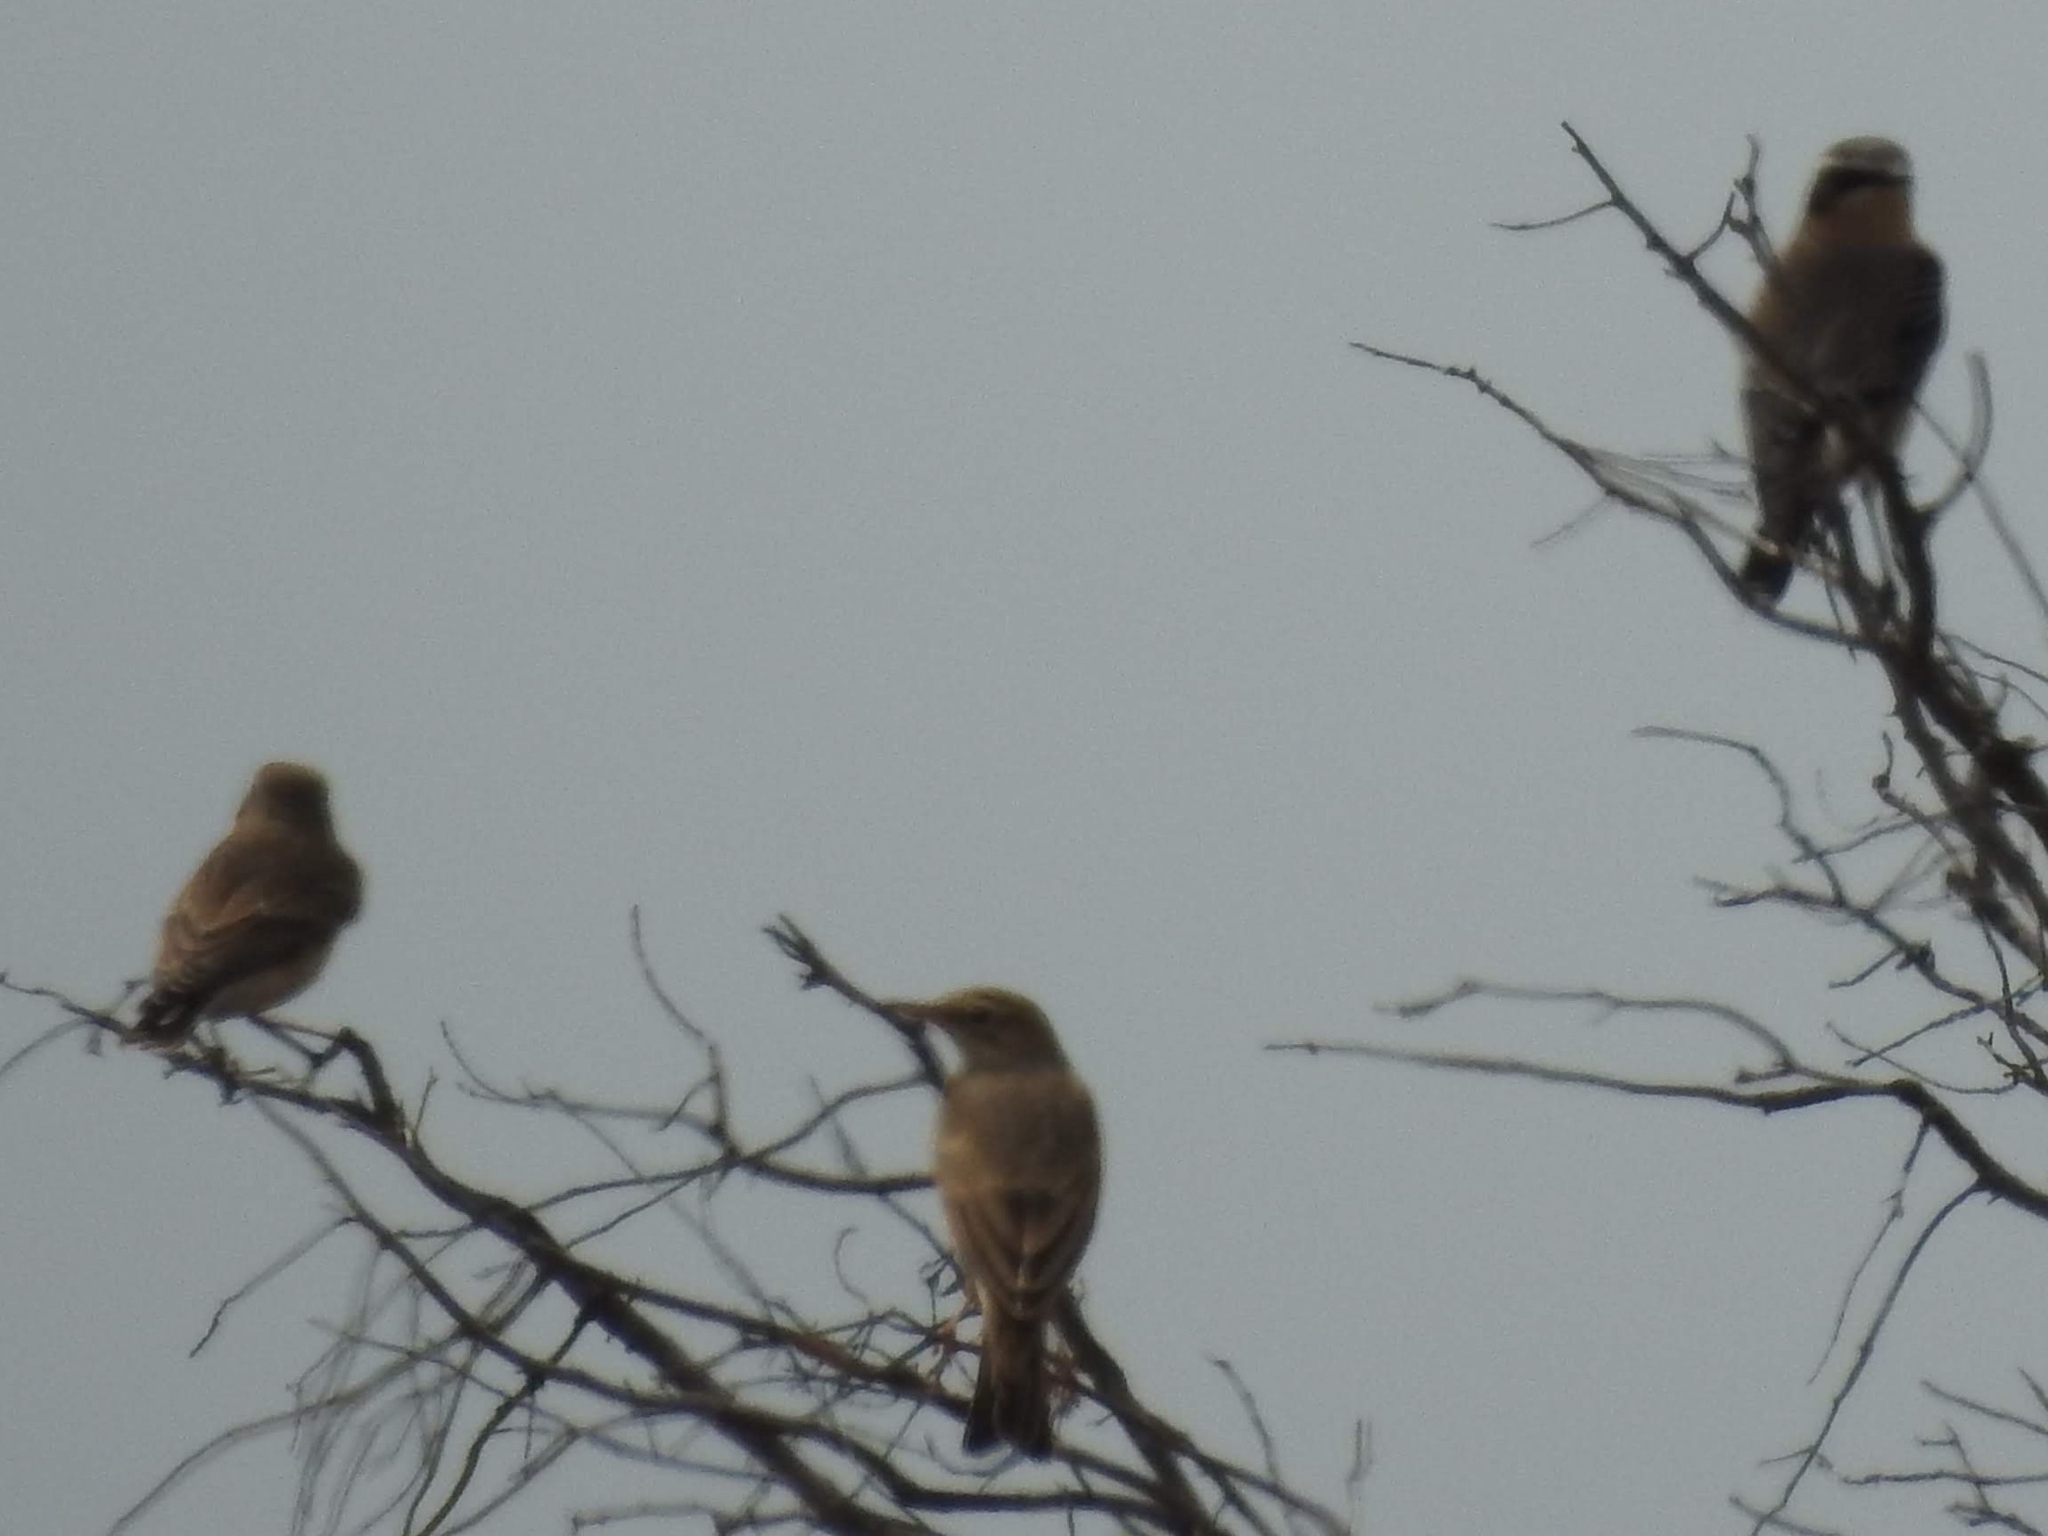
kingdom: Animalia
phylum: Chordata
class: Aves
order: Passeriformes
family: Motacillidae
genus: Anthus
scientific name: Anthus campestris
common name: Tawny pipit
